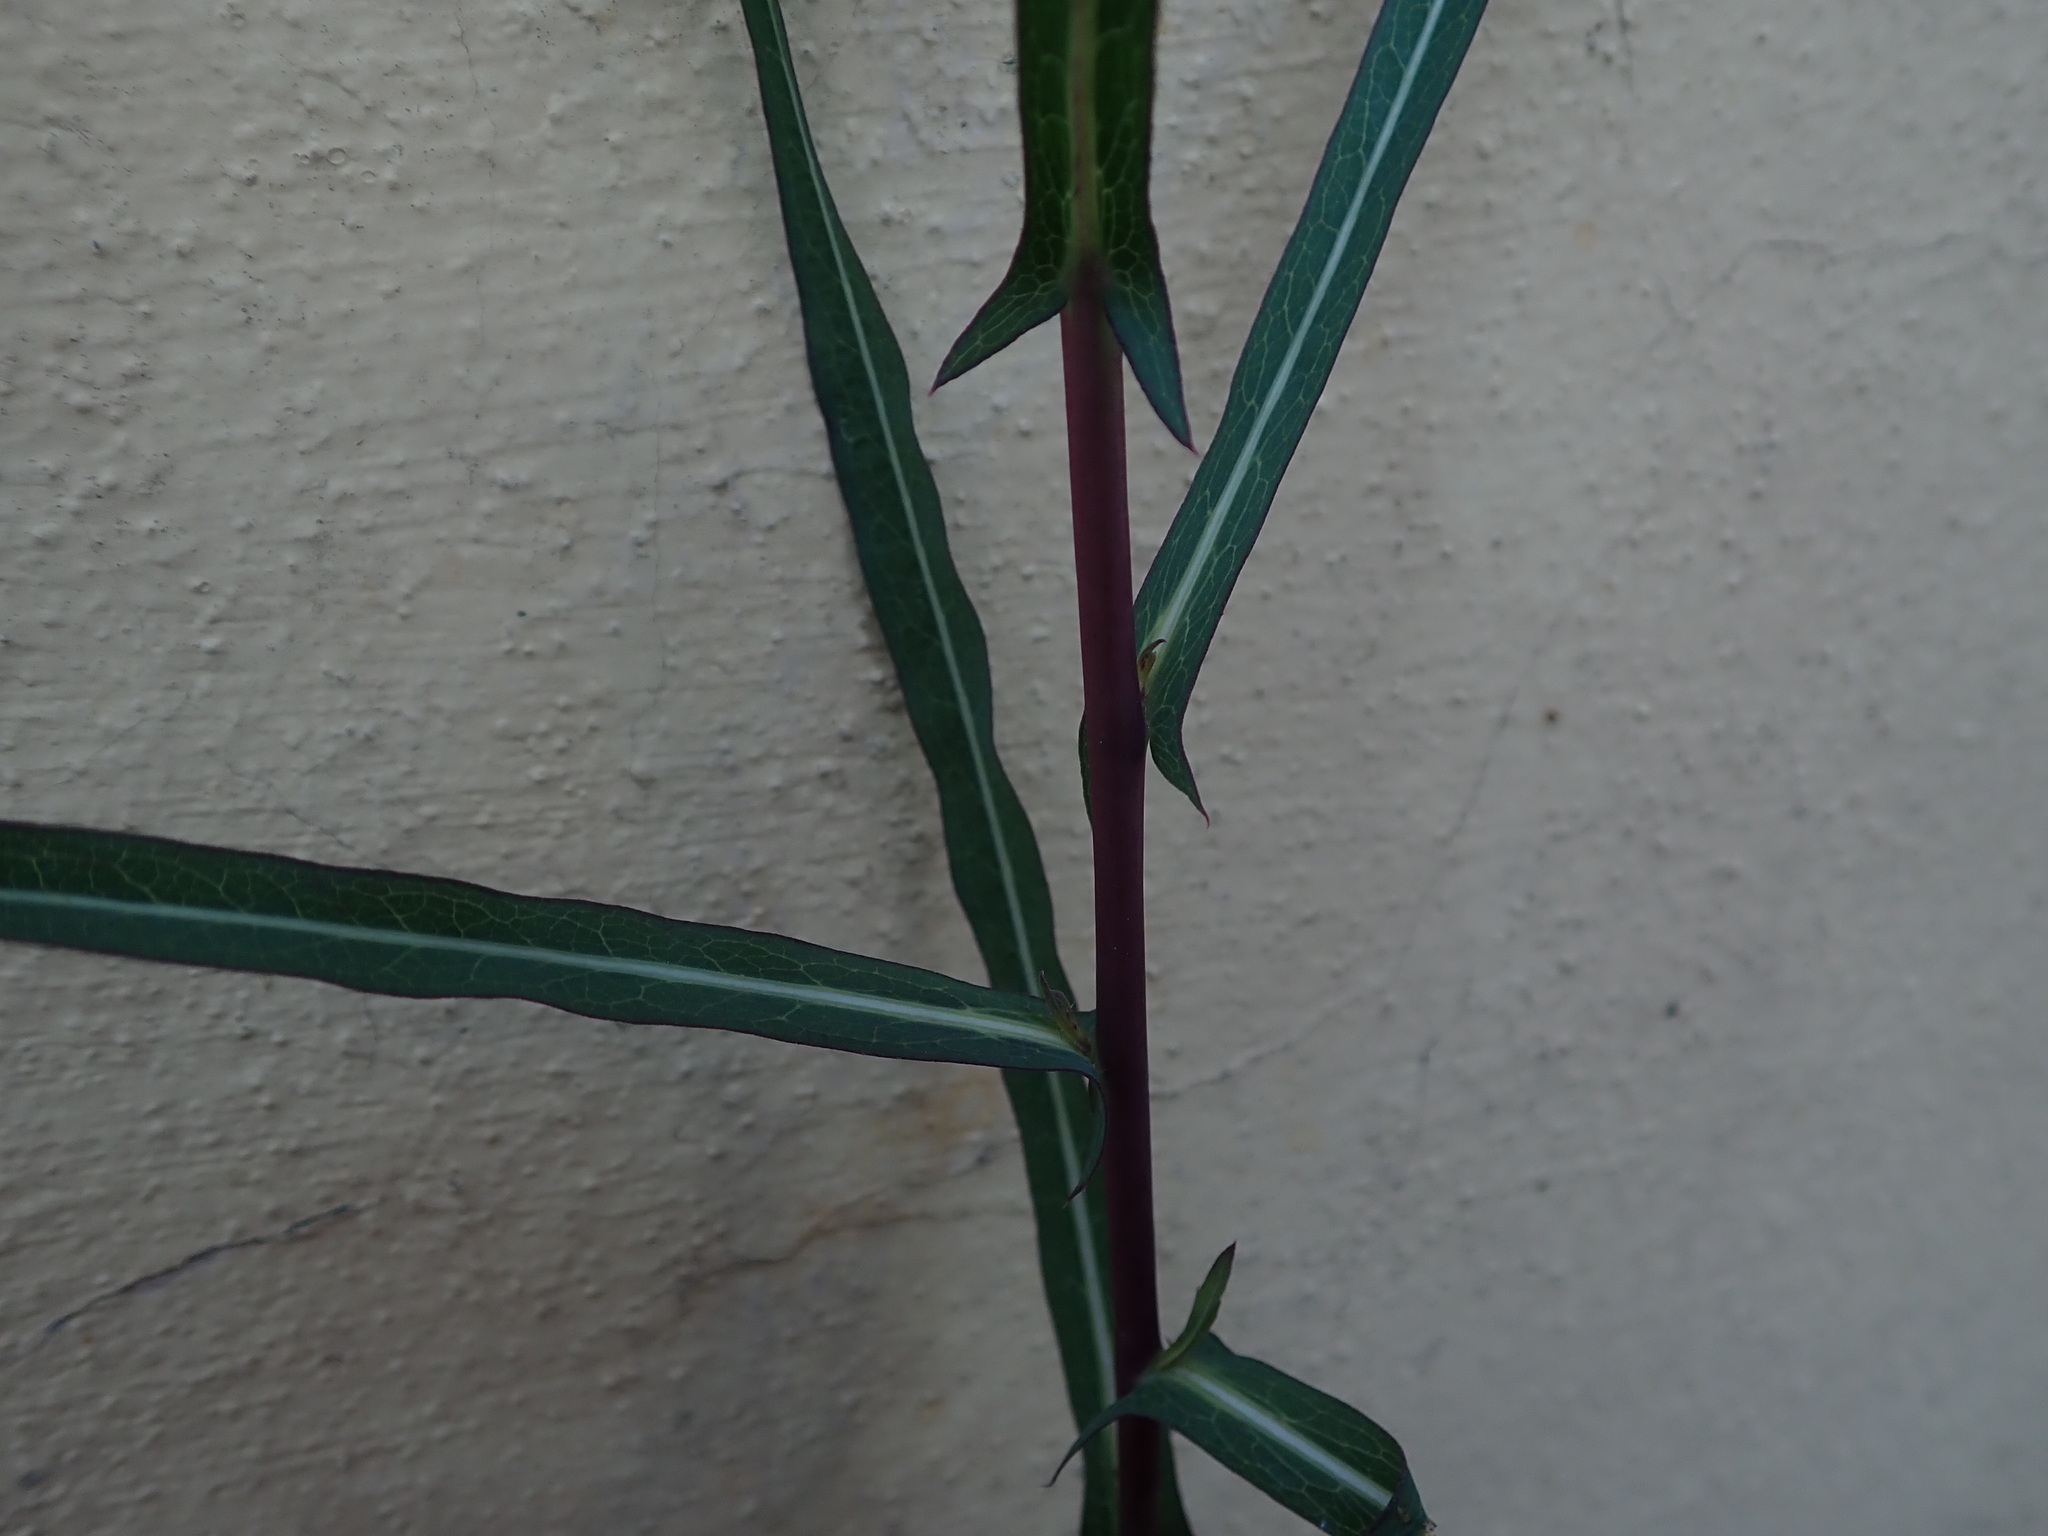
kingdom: Plantae
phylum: Tracheophyta
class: Magnoliopsida
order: Asterales
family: Asteraceae
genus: Lactuca
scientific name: Lactuca saligna
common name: Wild lettuce
